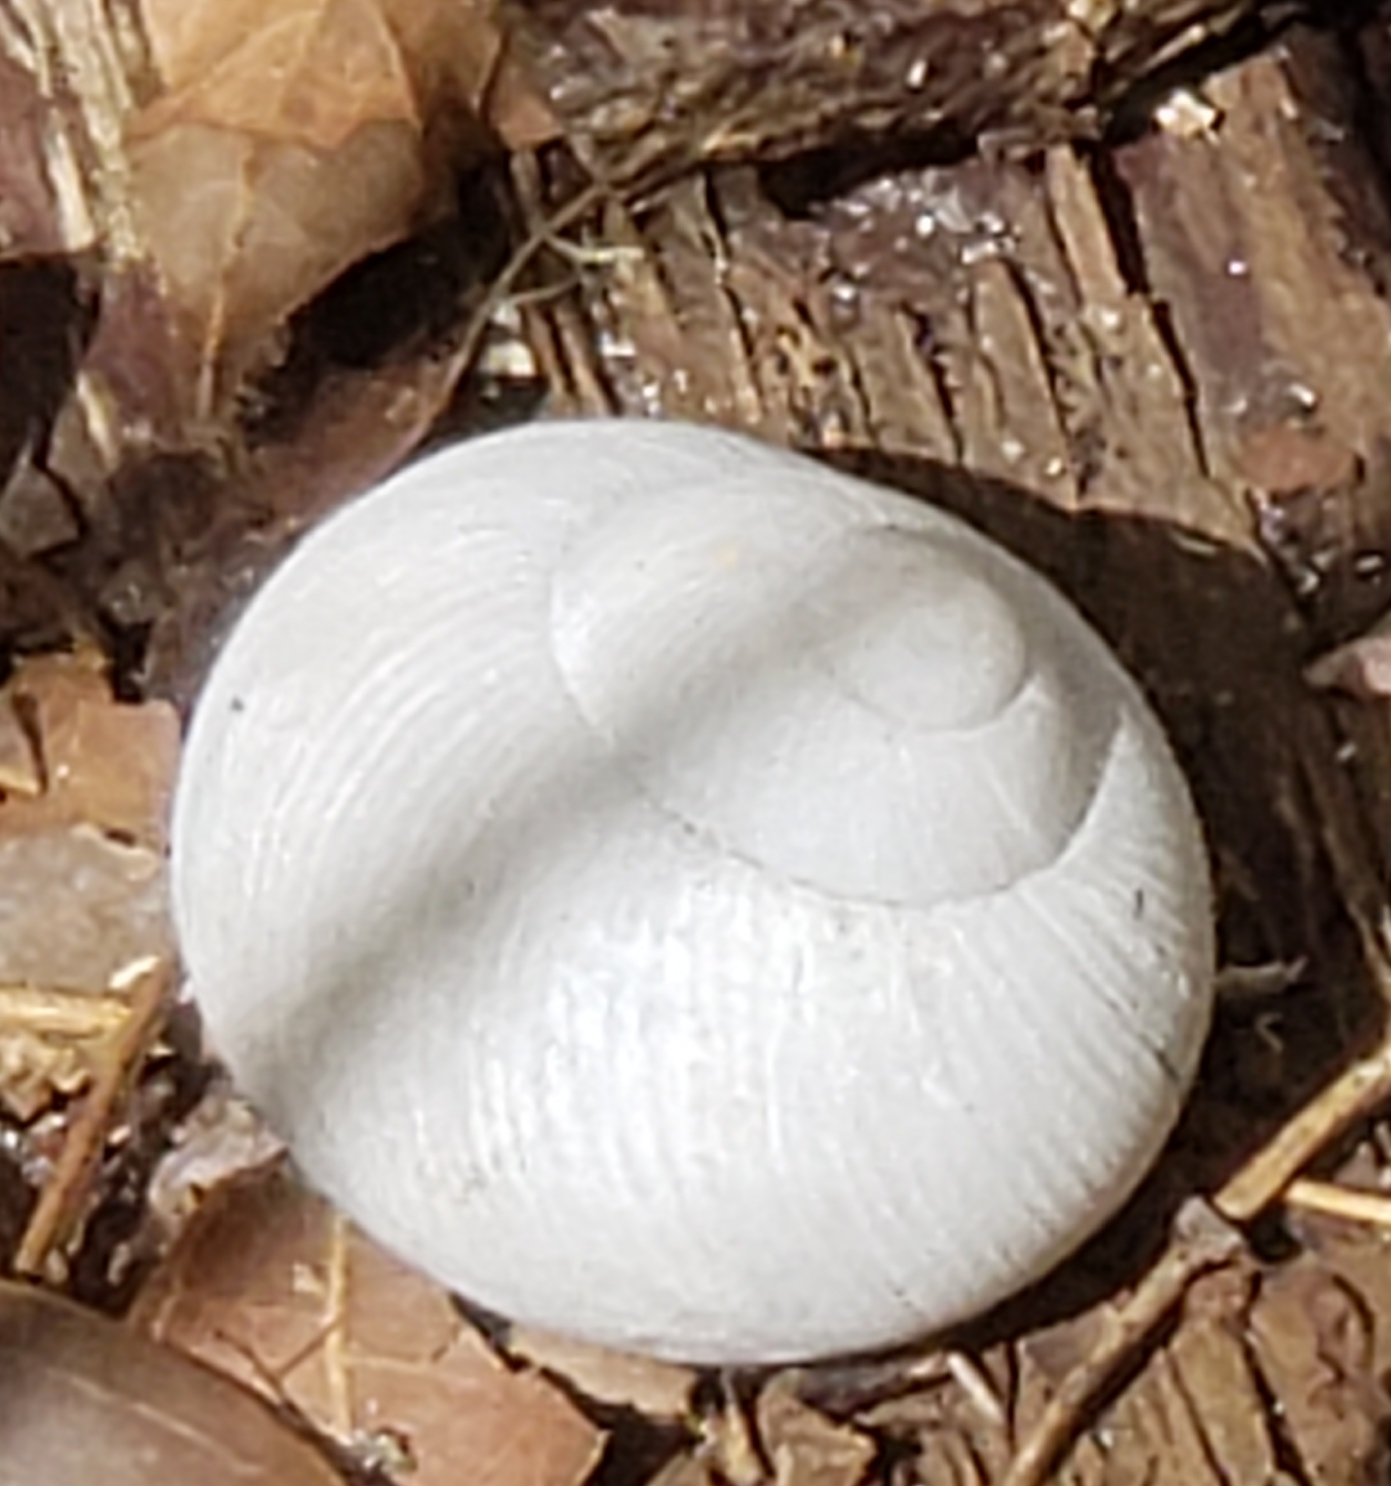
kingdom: Animalia
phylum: Mollusca
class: Gastropoda
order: Stylommatophora
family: Zachrysiidae
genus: Zachrysia
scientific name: Zachrysia provisoria
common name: Garden zachrysia
